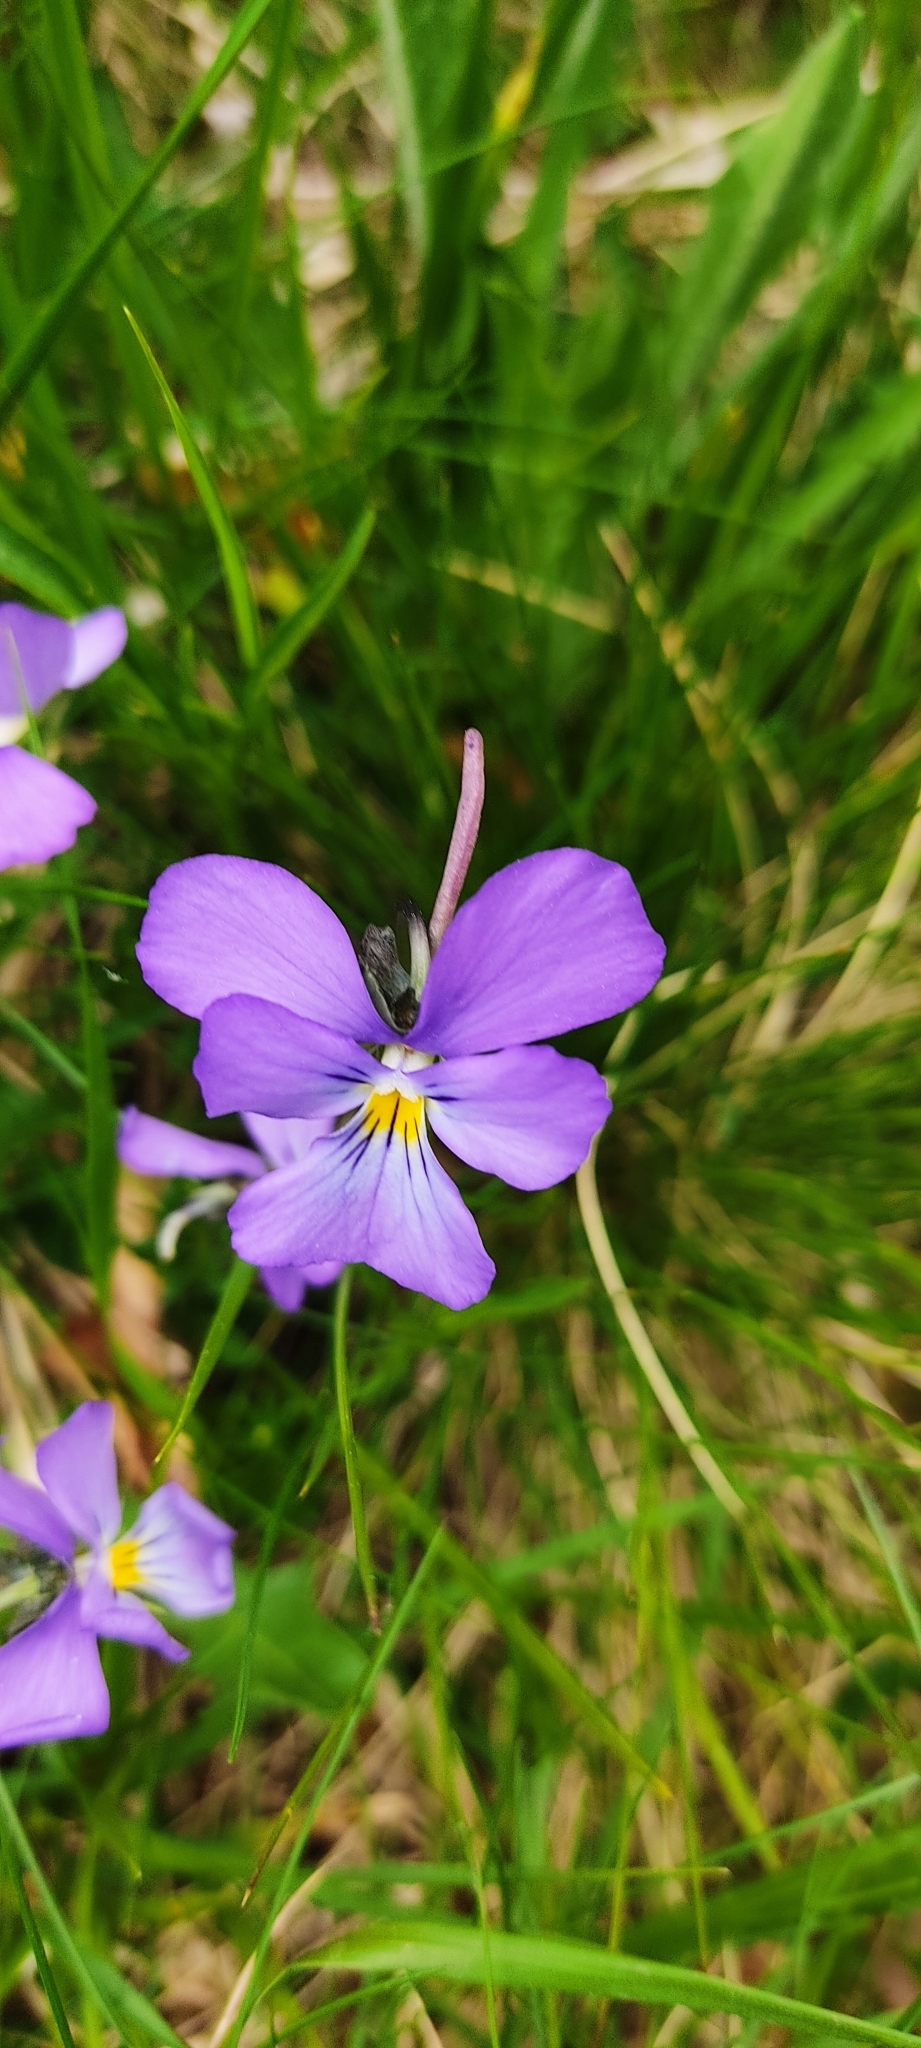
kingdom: Plantae
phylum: Tracheophyta
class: Magnoliopsida
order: Malpighiales
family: Violaceae
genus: Viola
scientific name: Viola calcarata
